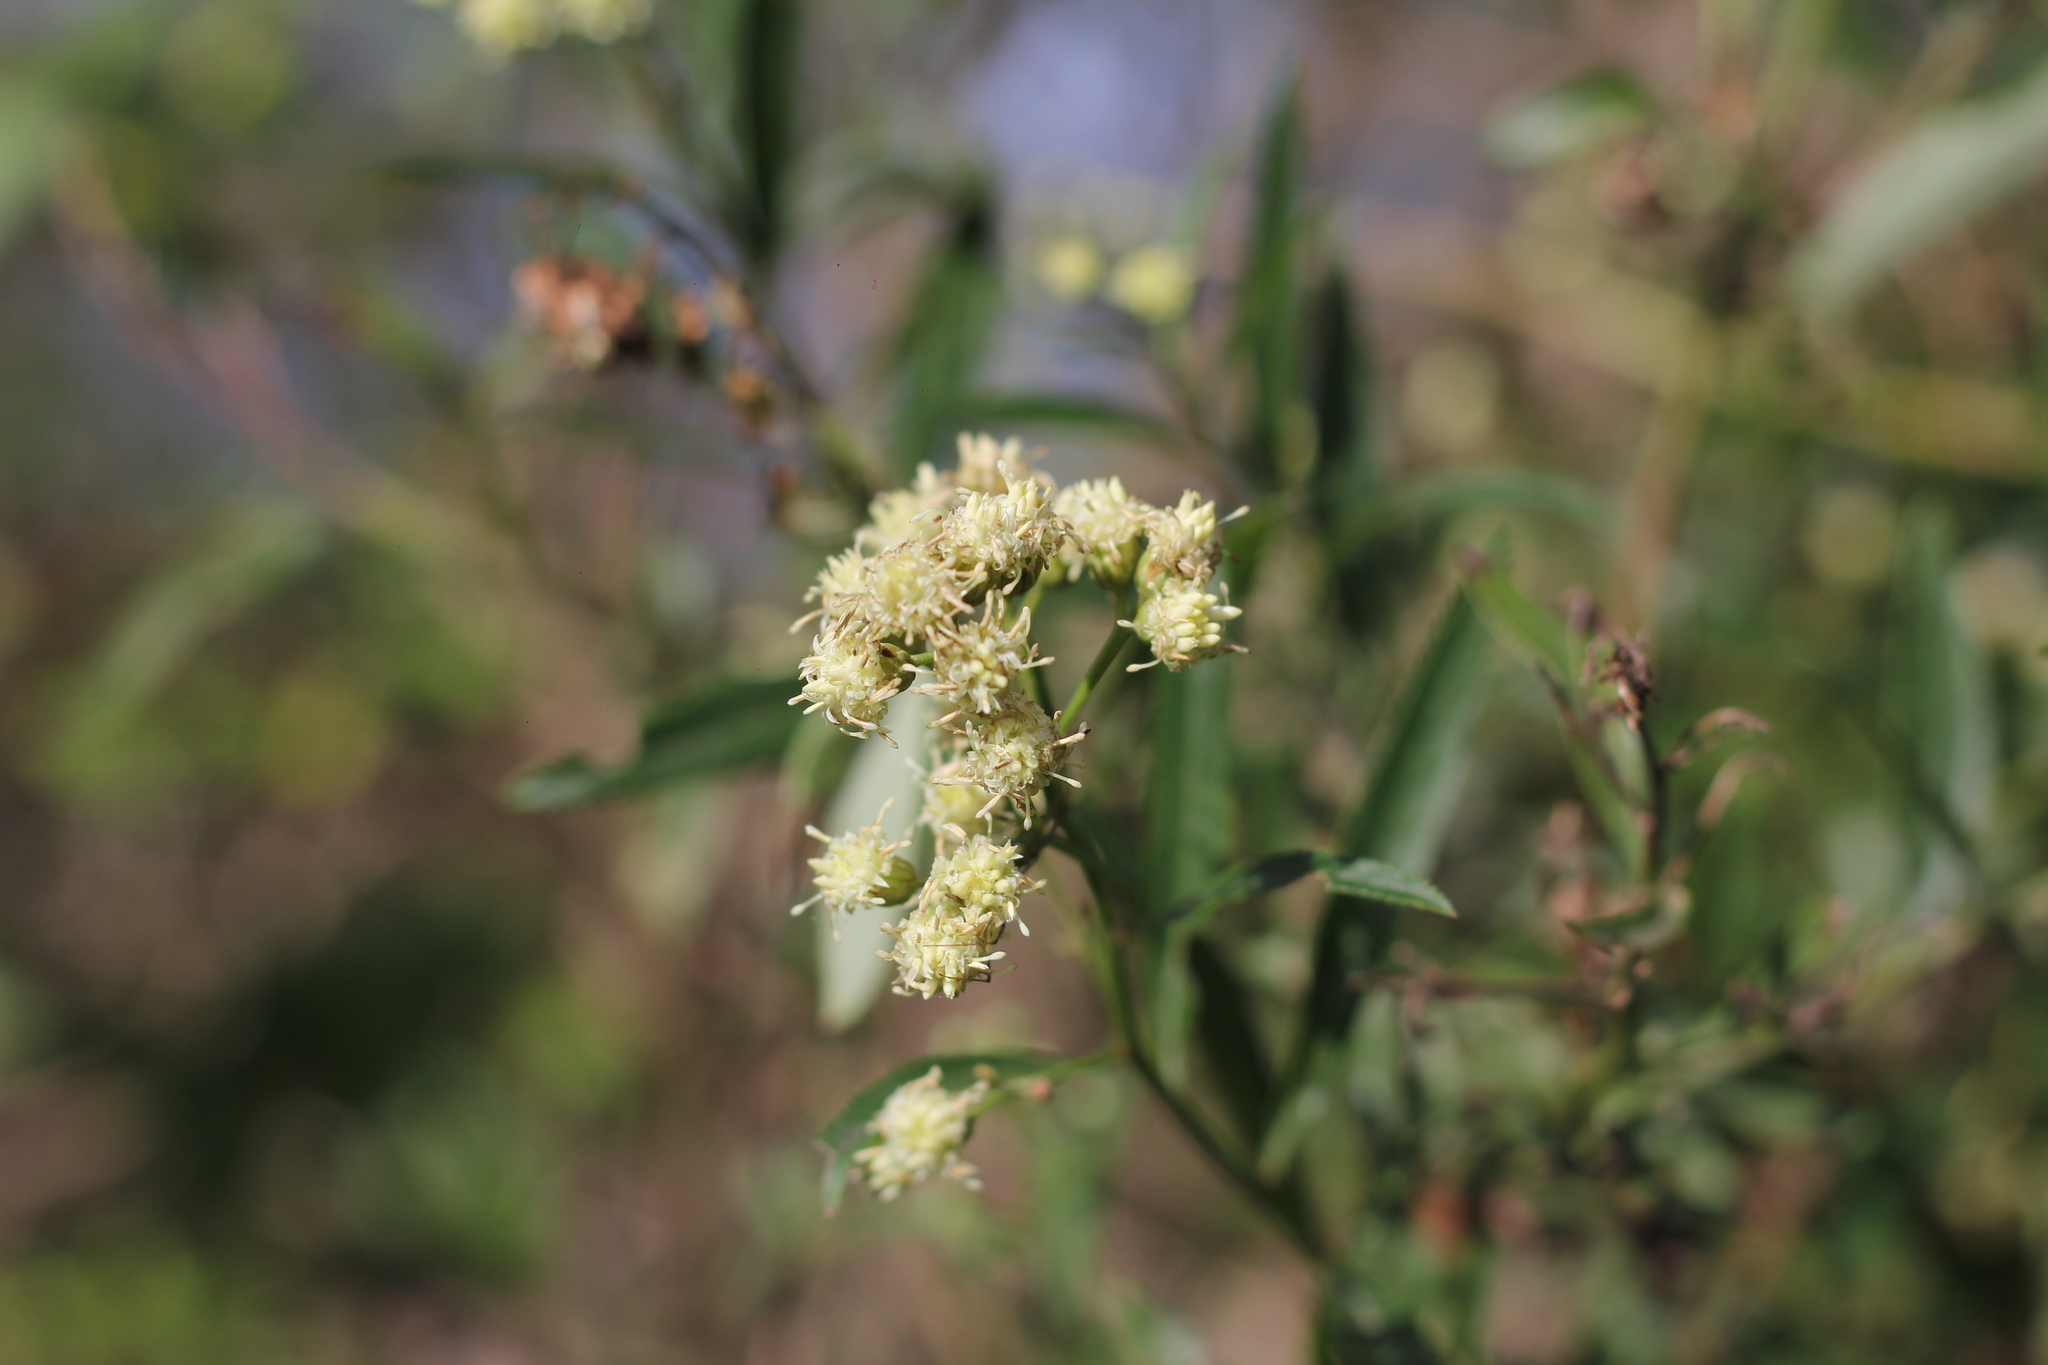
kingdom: Plantae
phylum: Tracheophyta
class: Magnoliopsida
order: Asterales
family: Asteraceae
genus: Baccharis
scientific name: Baccharis punctulata
